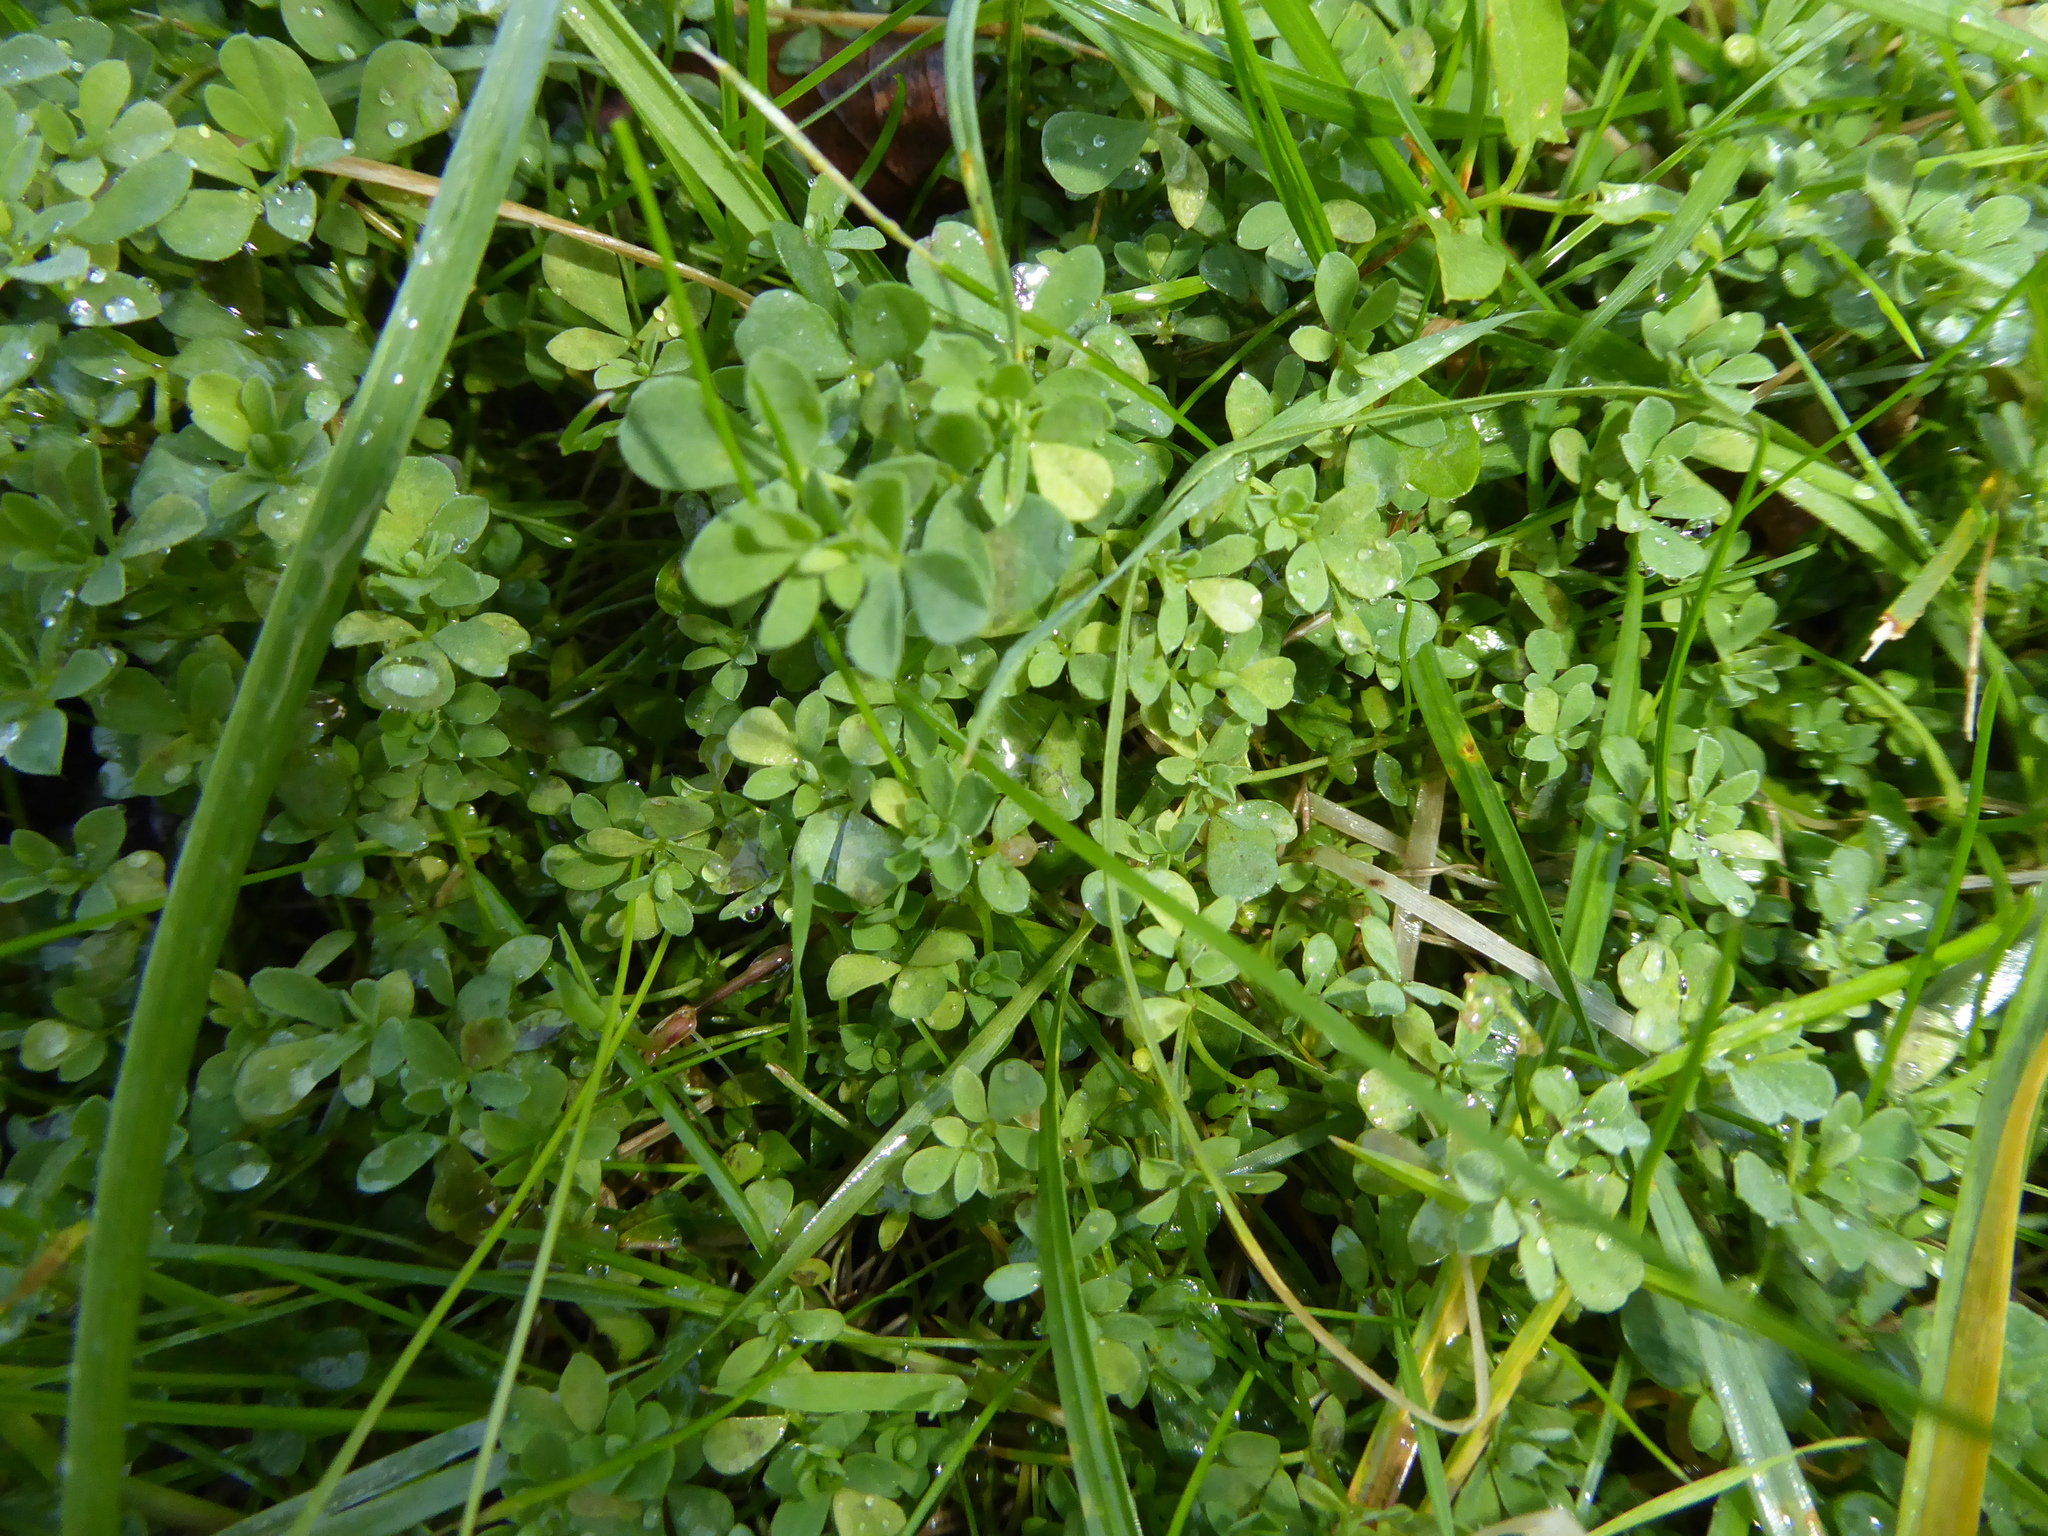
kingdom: Plantae
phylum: Tracheophyta
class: Magnoliopsida
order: Fabales
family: Fabaceae
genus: Lotus
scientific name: Lotus corniculatus
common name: Common bird's-foot-trefoil
